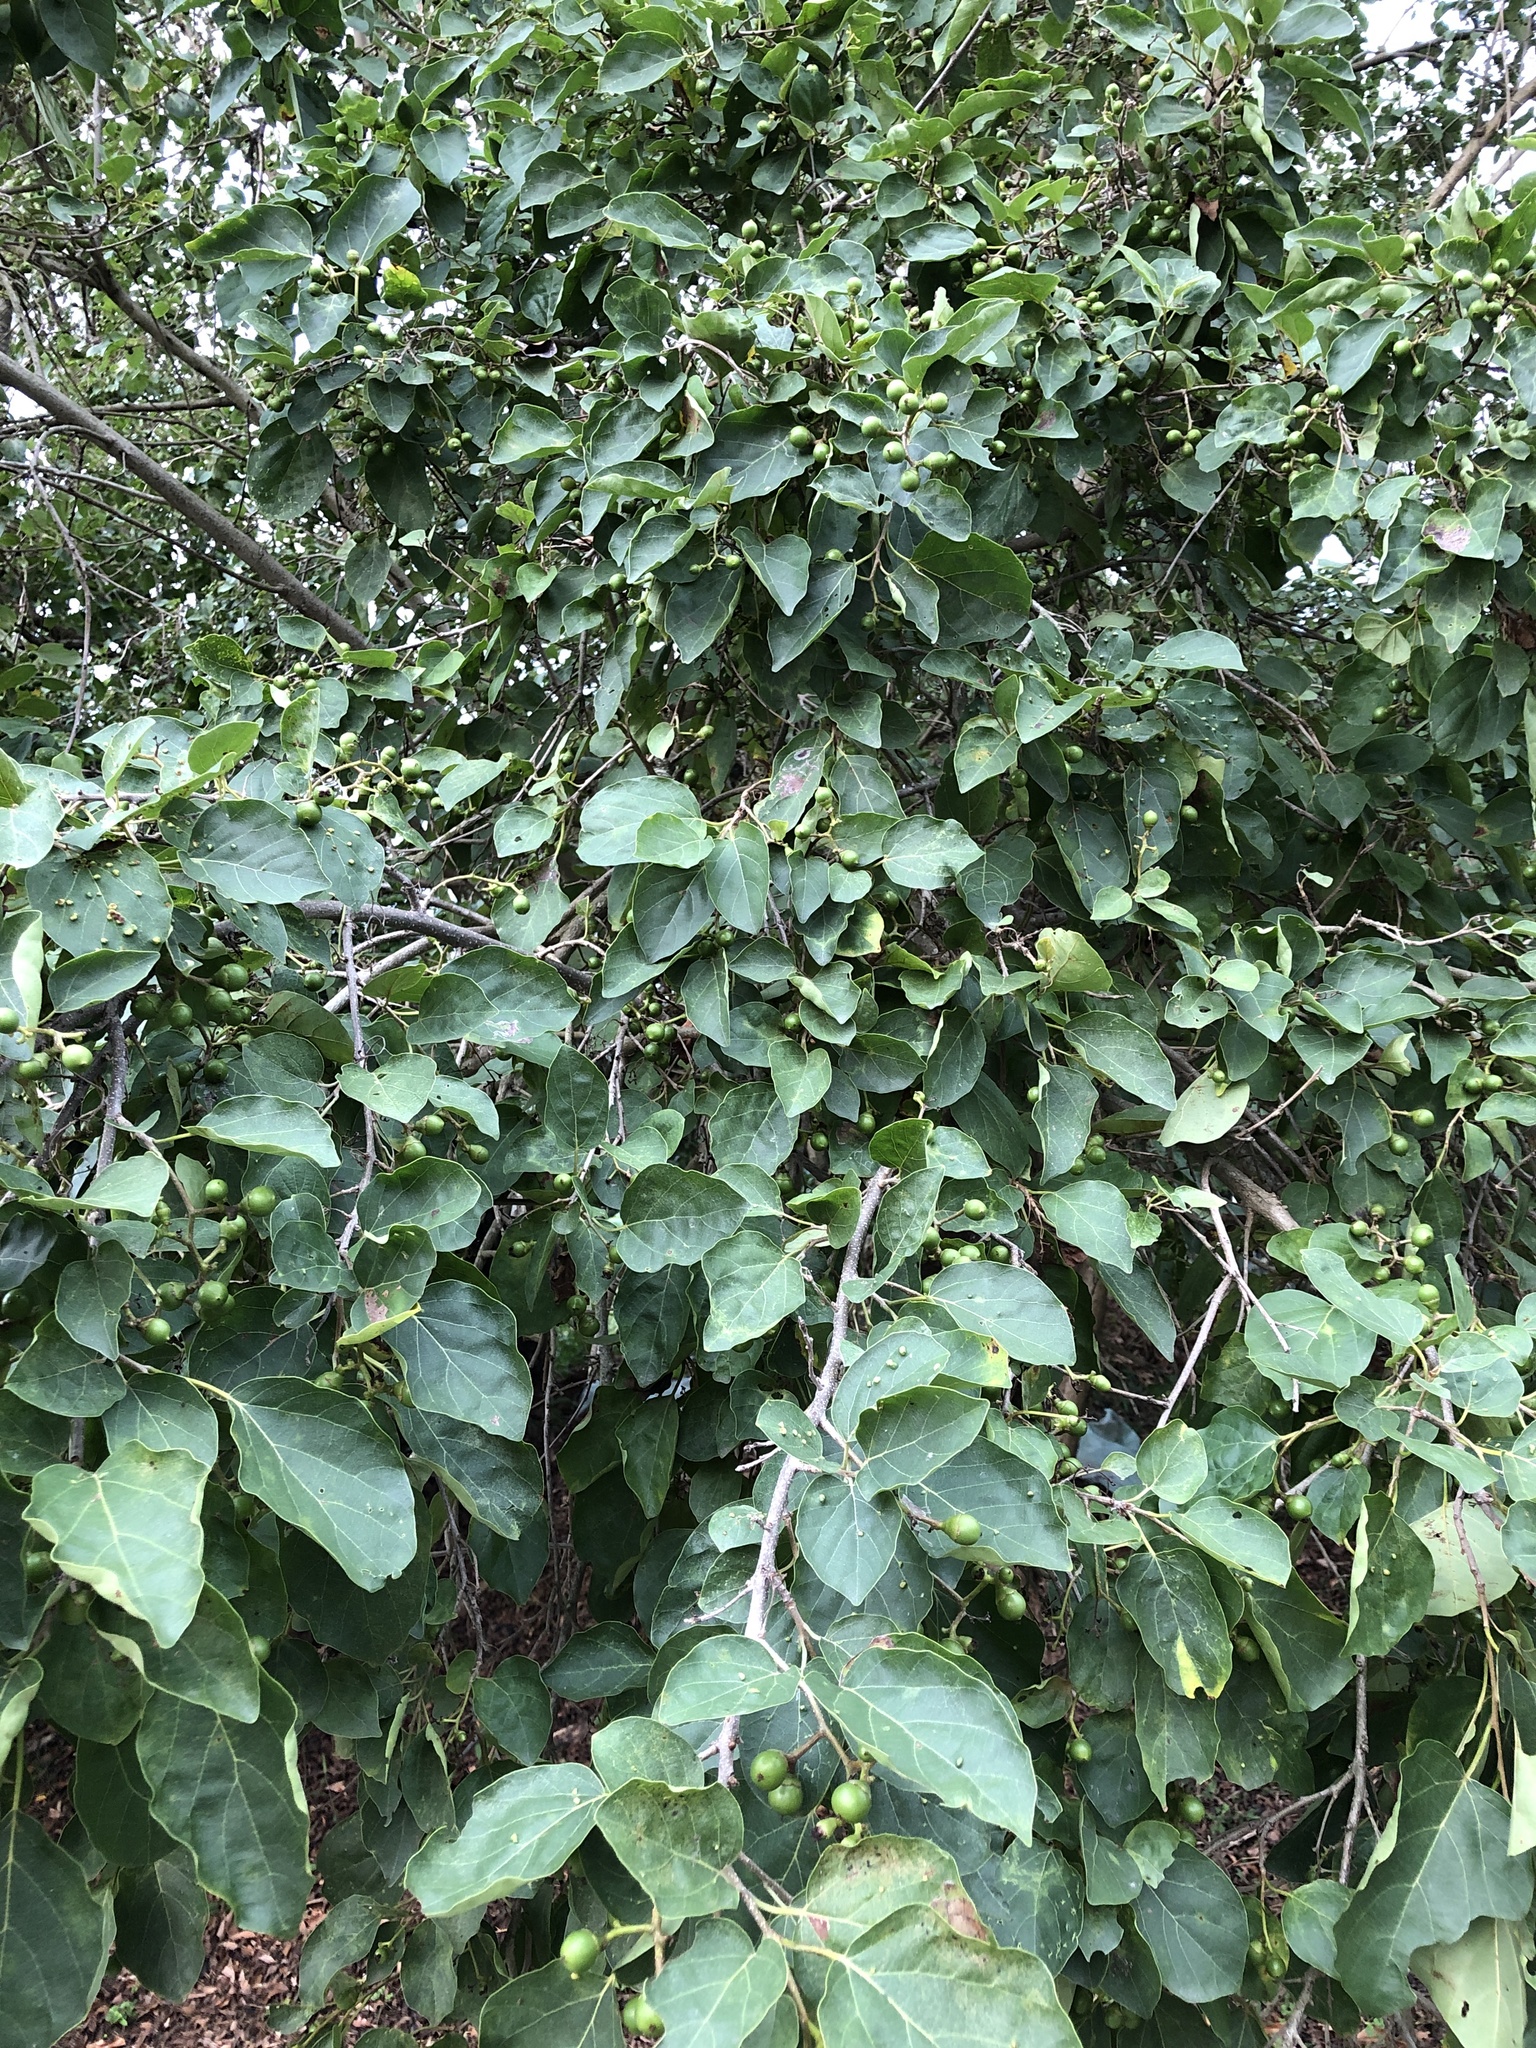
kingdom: Plantae
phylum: Tracheophyta
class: Magnoliopsida
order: Boraginales
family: Cordiaceae
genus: Cordia
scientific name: Cordia dichotoma
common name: Fragrant manjack
